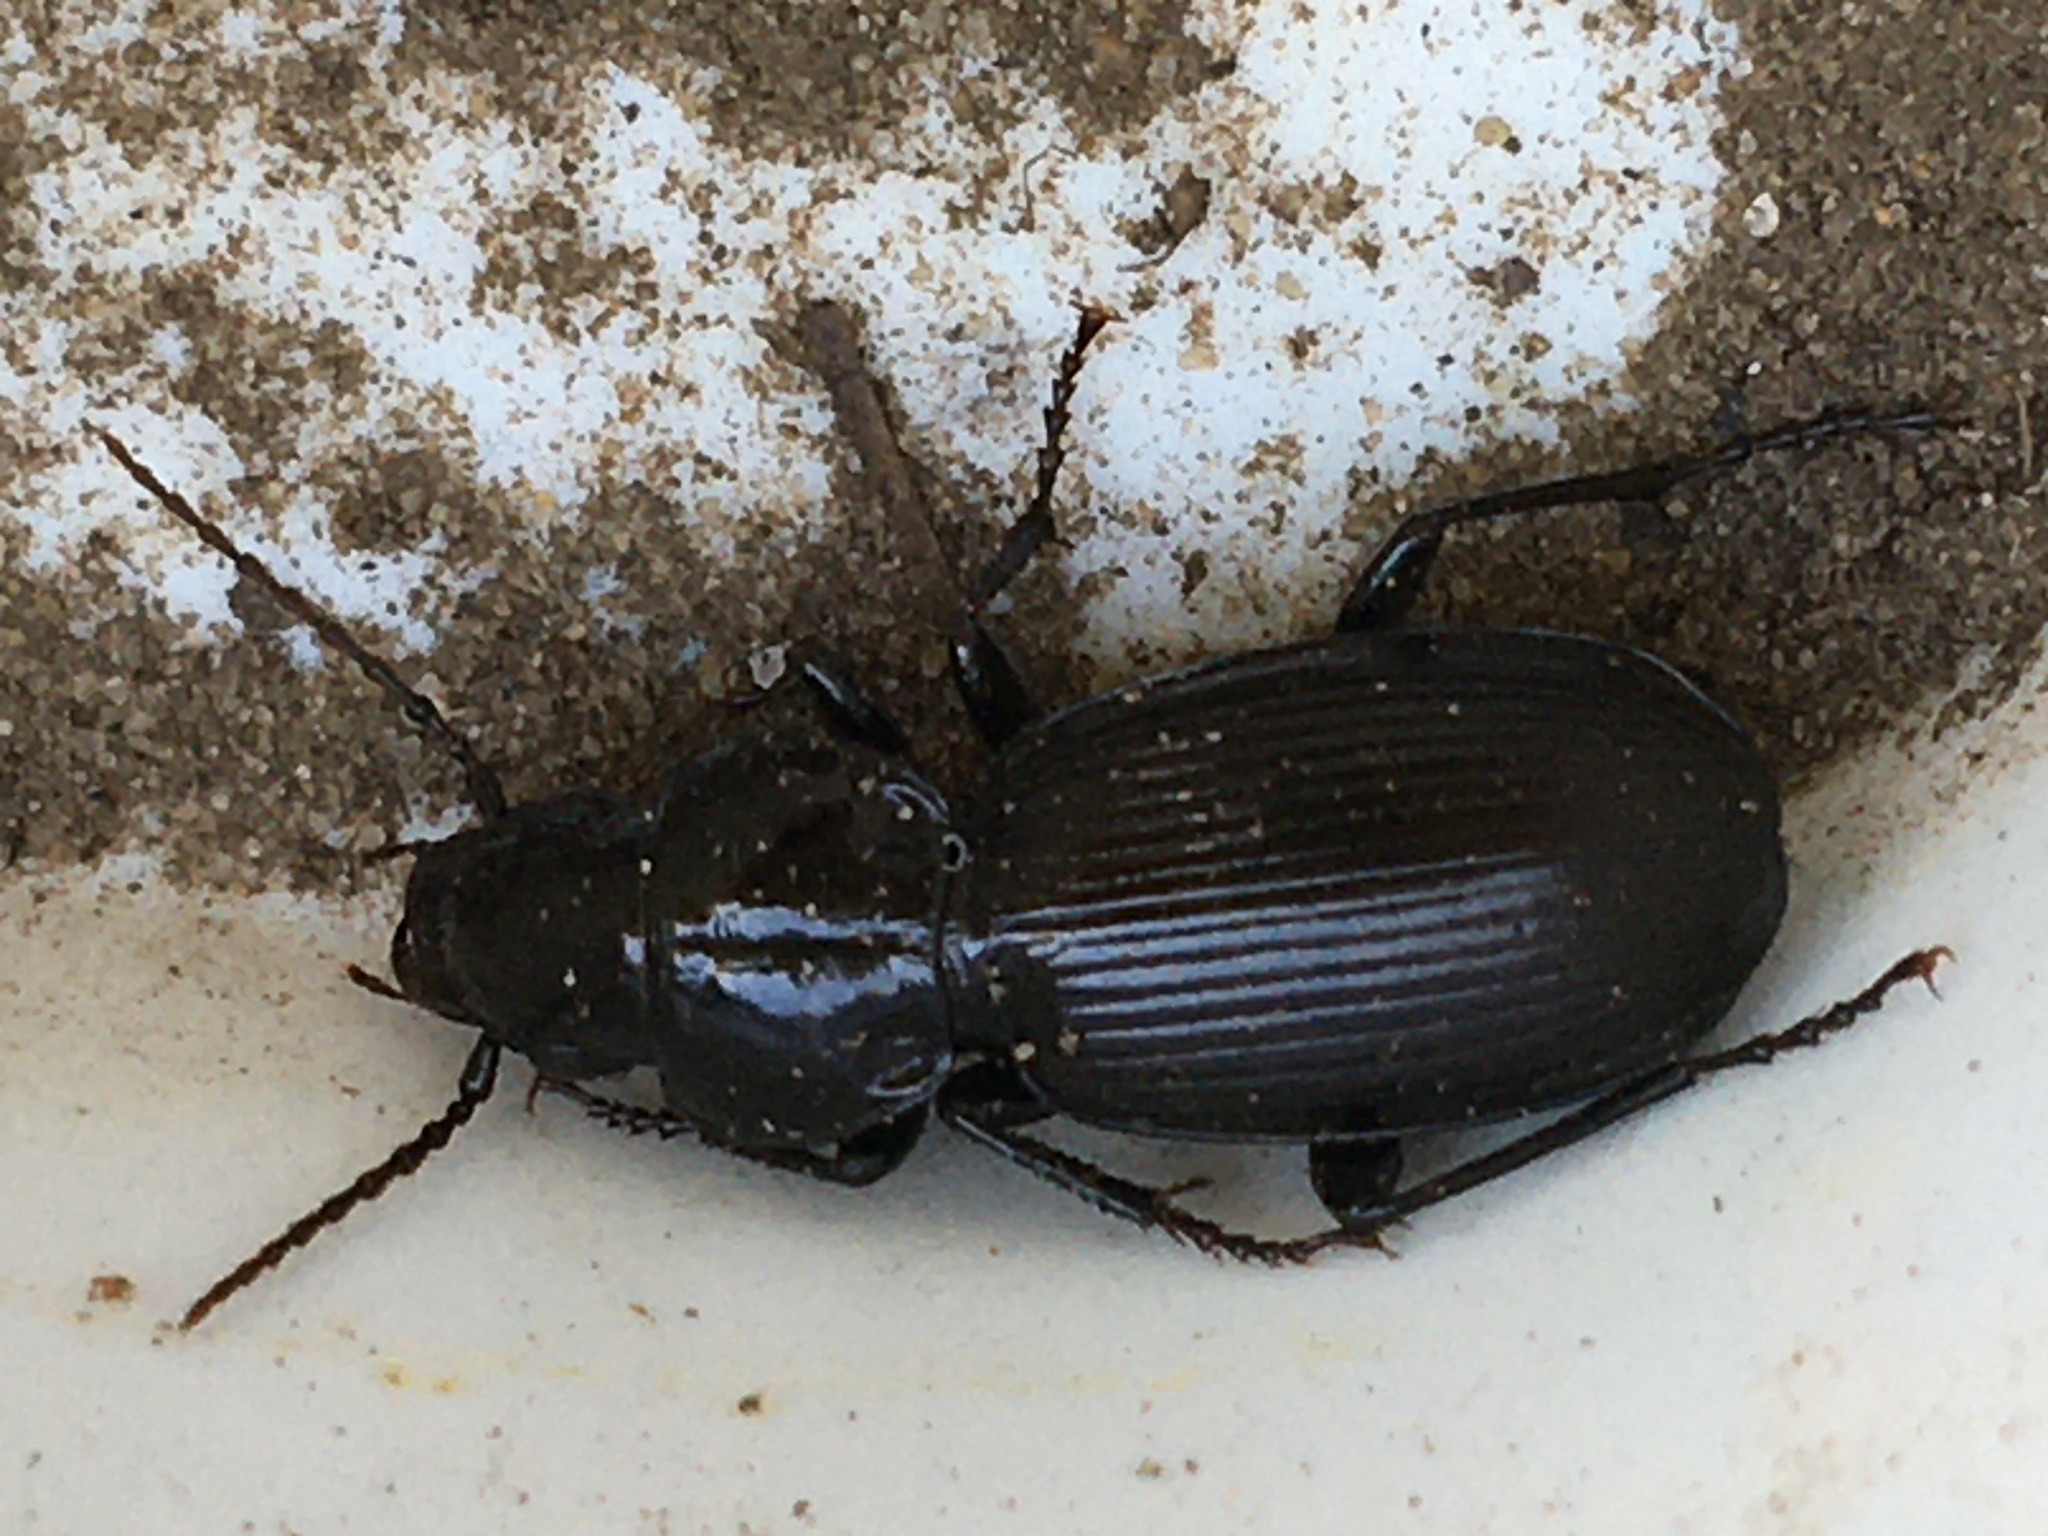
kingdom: Animalia
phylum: Arthropoda
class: Insecta
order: Coleoptera
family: Carabidae
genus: Pterostichus
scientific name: Pterostichus madidus
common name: Black clock
